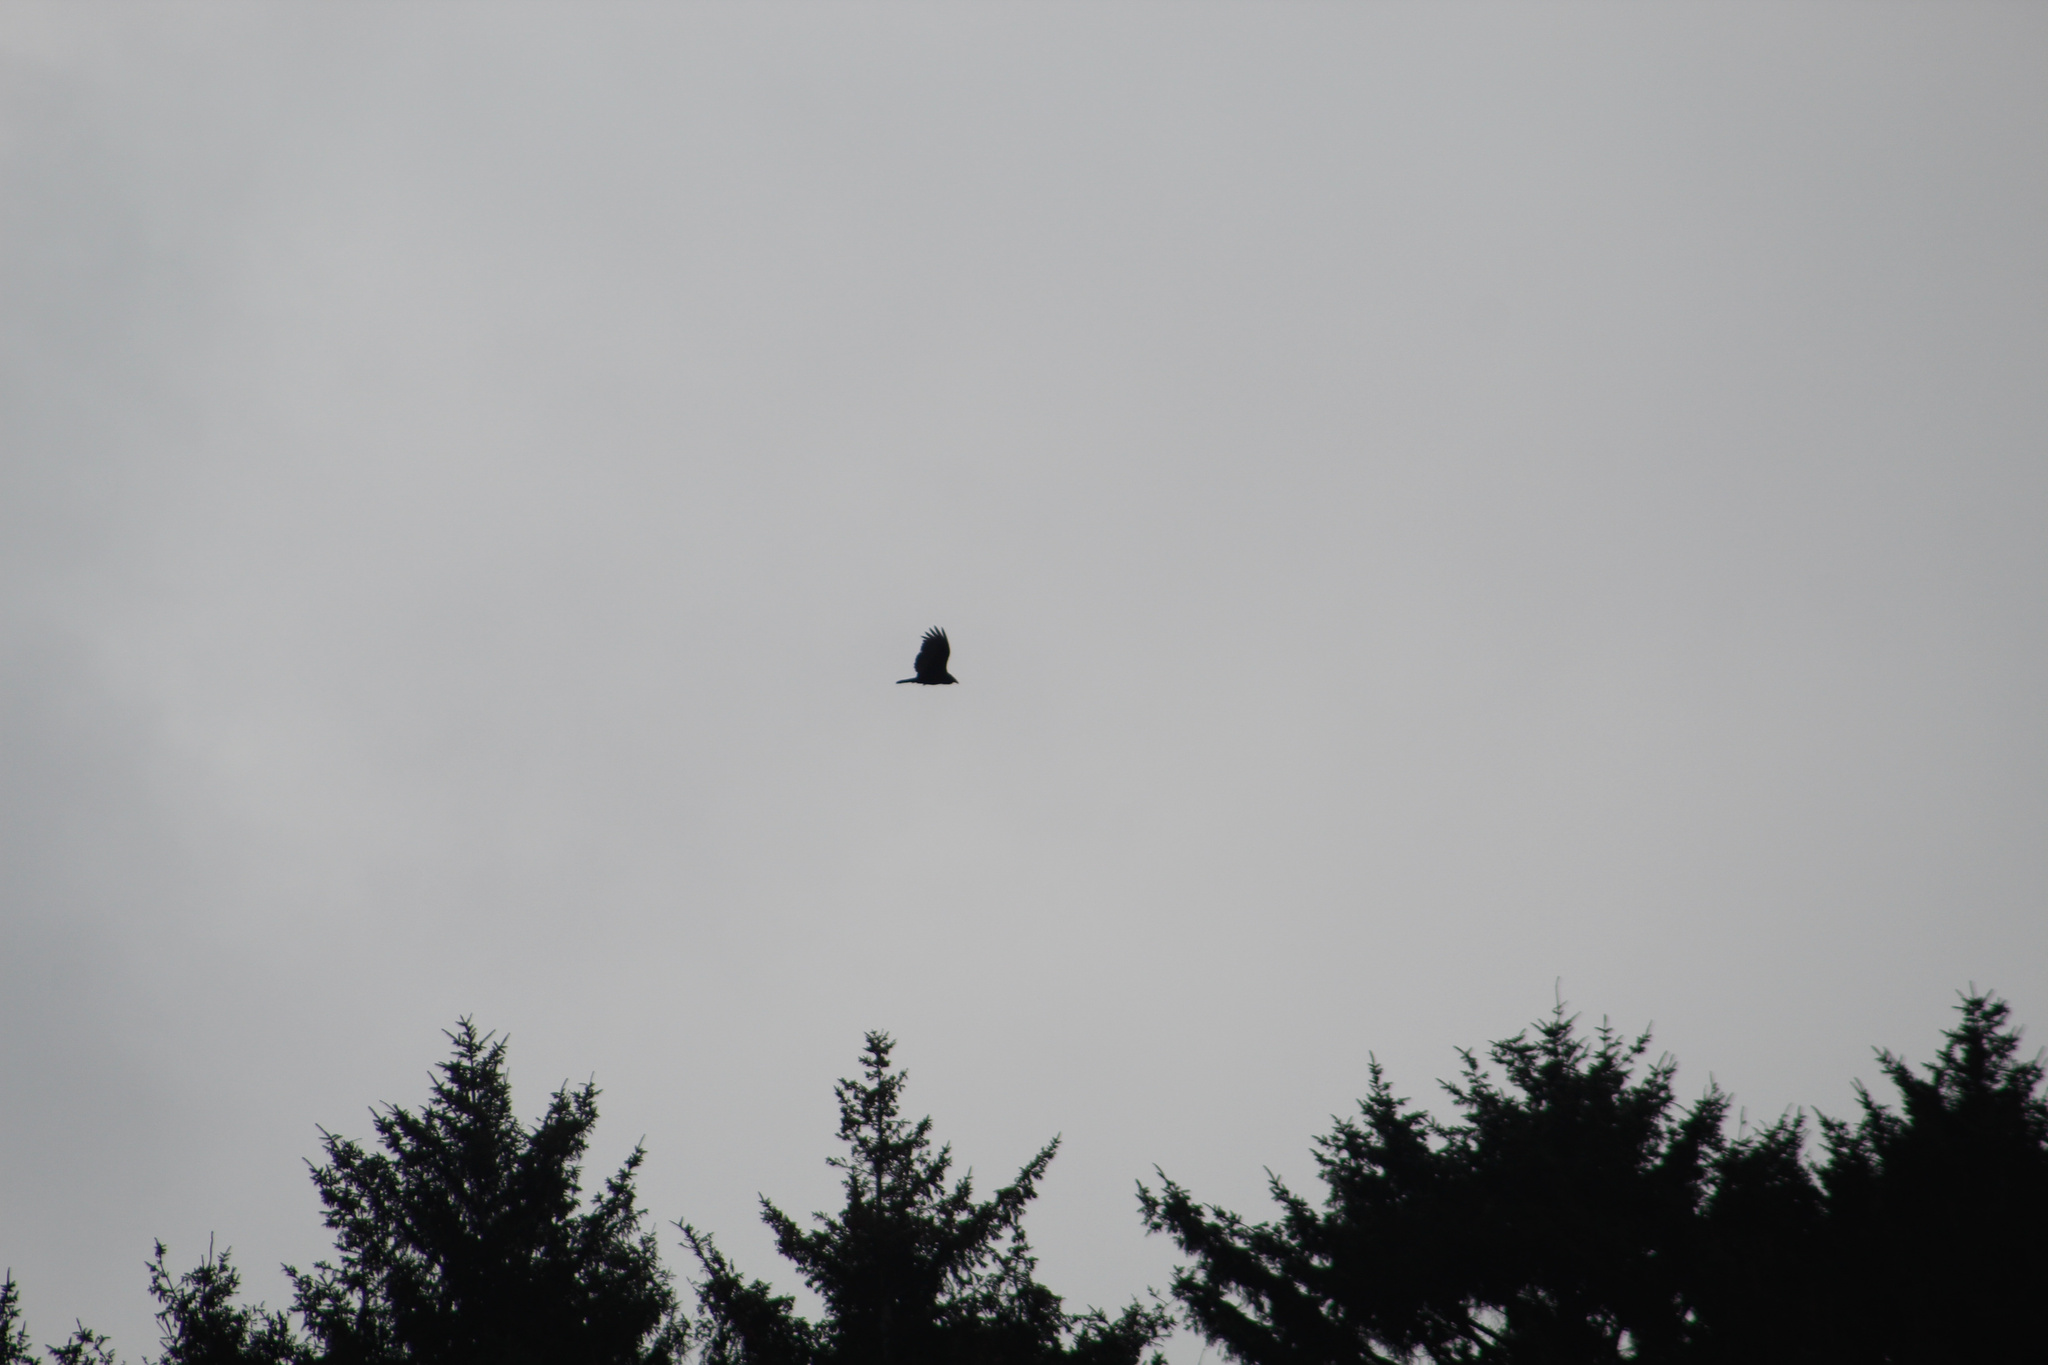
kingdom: Animalia
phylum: Chordata
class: Aves
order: Accipitriformes
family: Cathartidae
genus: Cathartes
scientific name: Cathartes aura
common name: Turkey vulture
